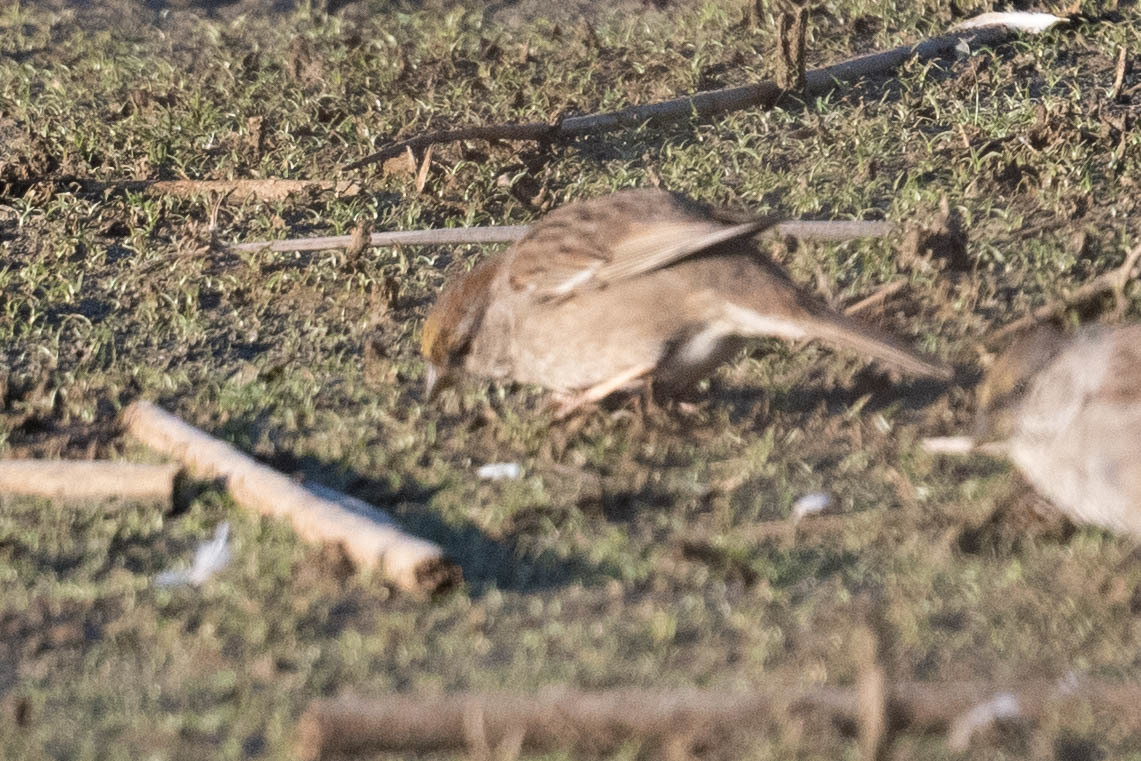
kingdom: Animalia
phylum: Chordata
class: Aves
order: Passeriformes
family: Passerellidae
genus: Zonotrichia
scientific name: Zonotrichia atricapilla
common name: Golden-crowned sparrow
